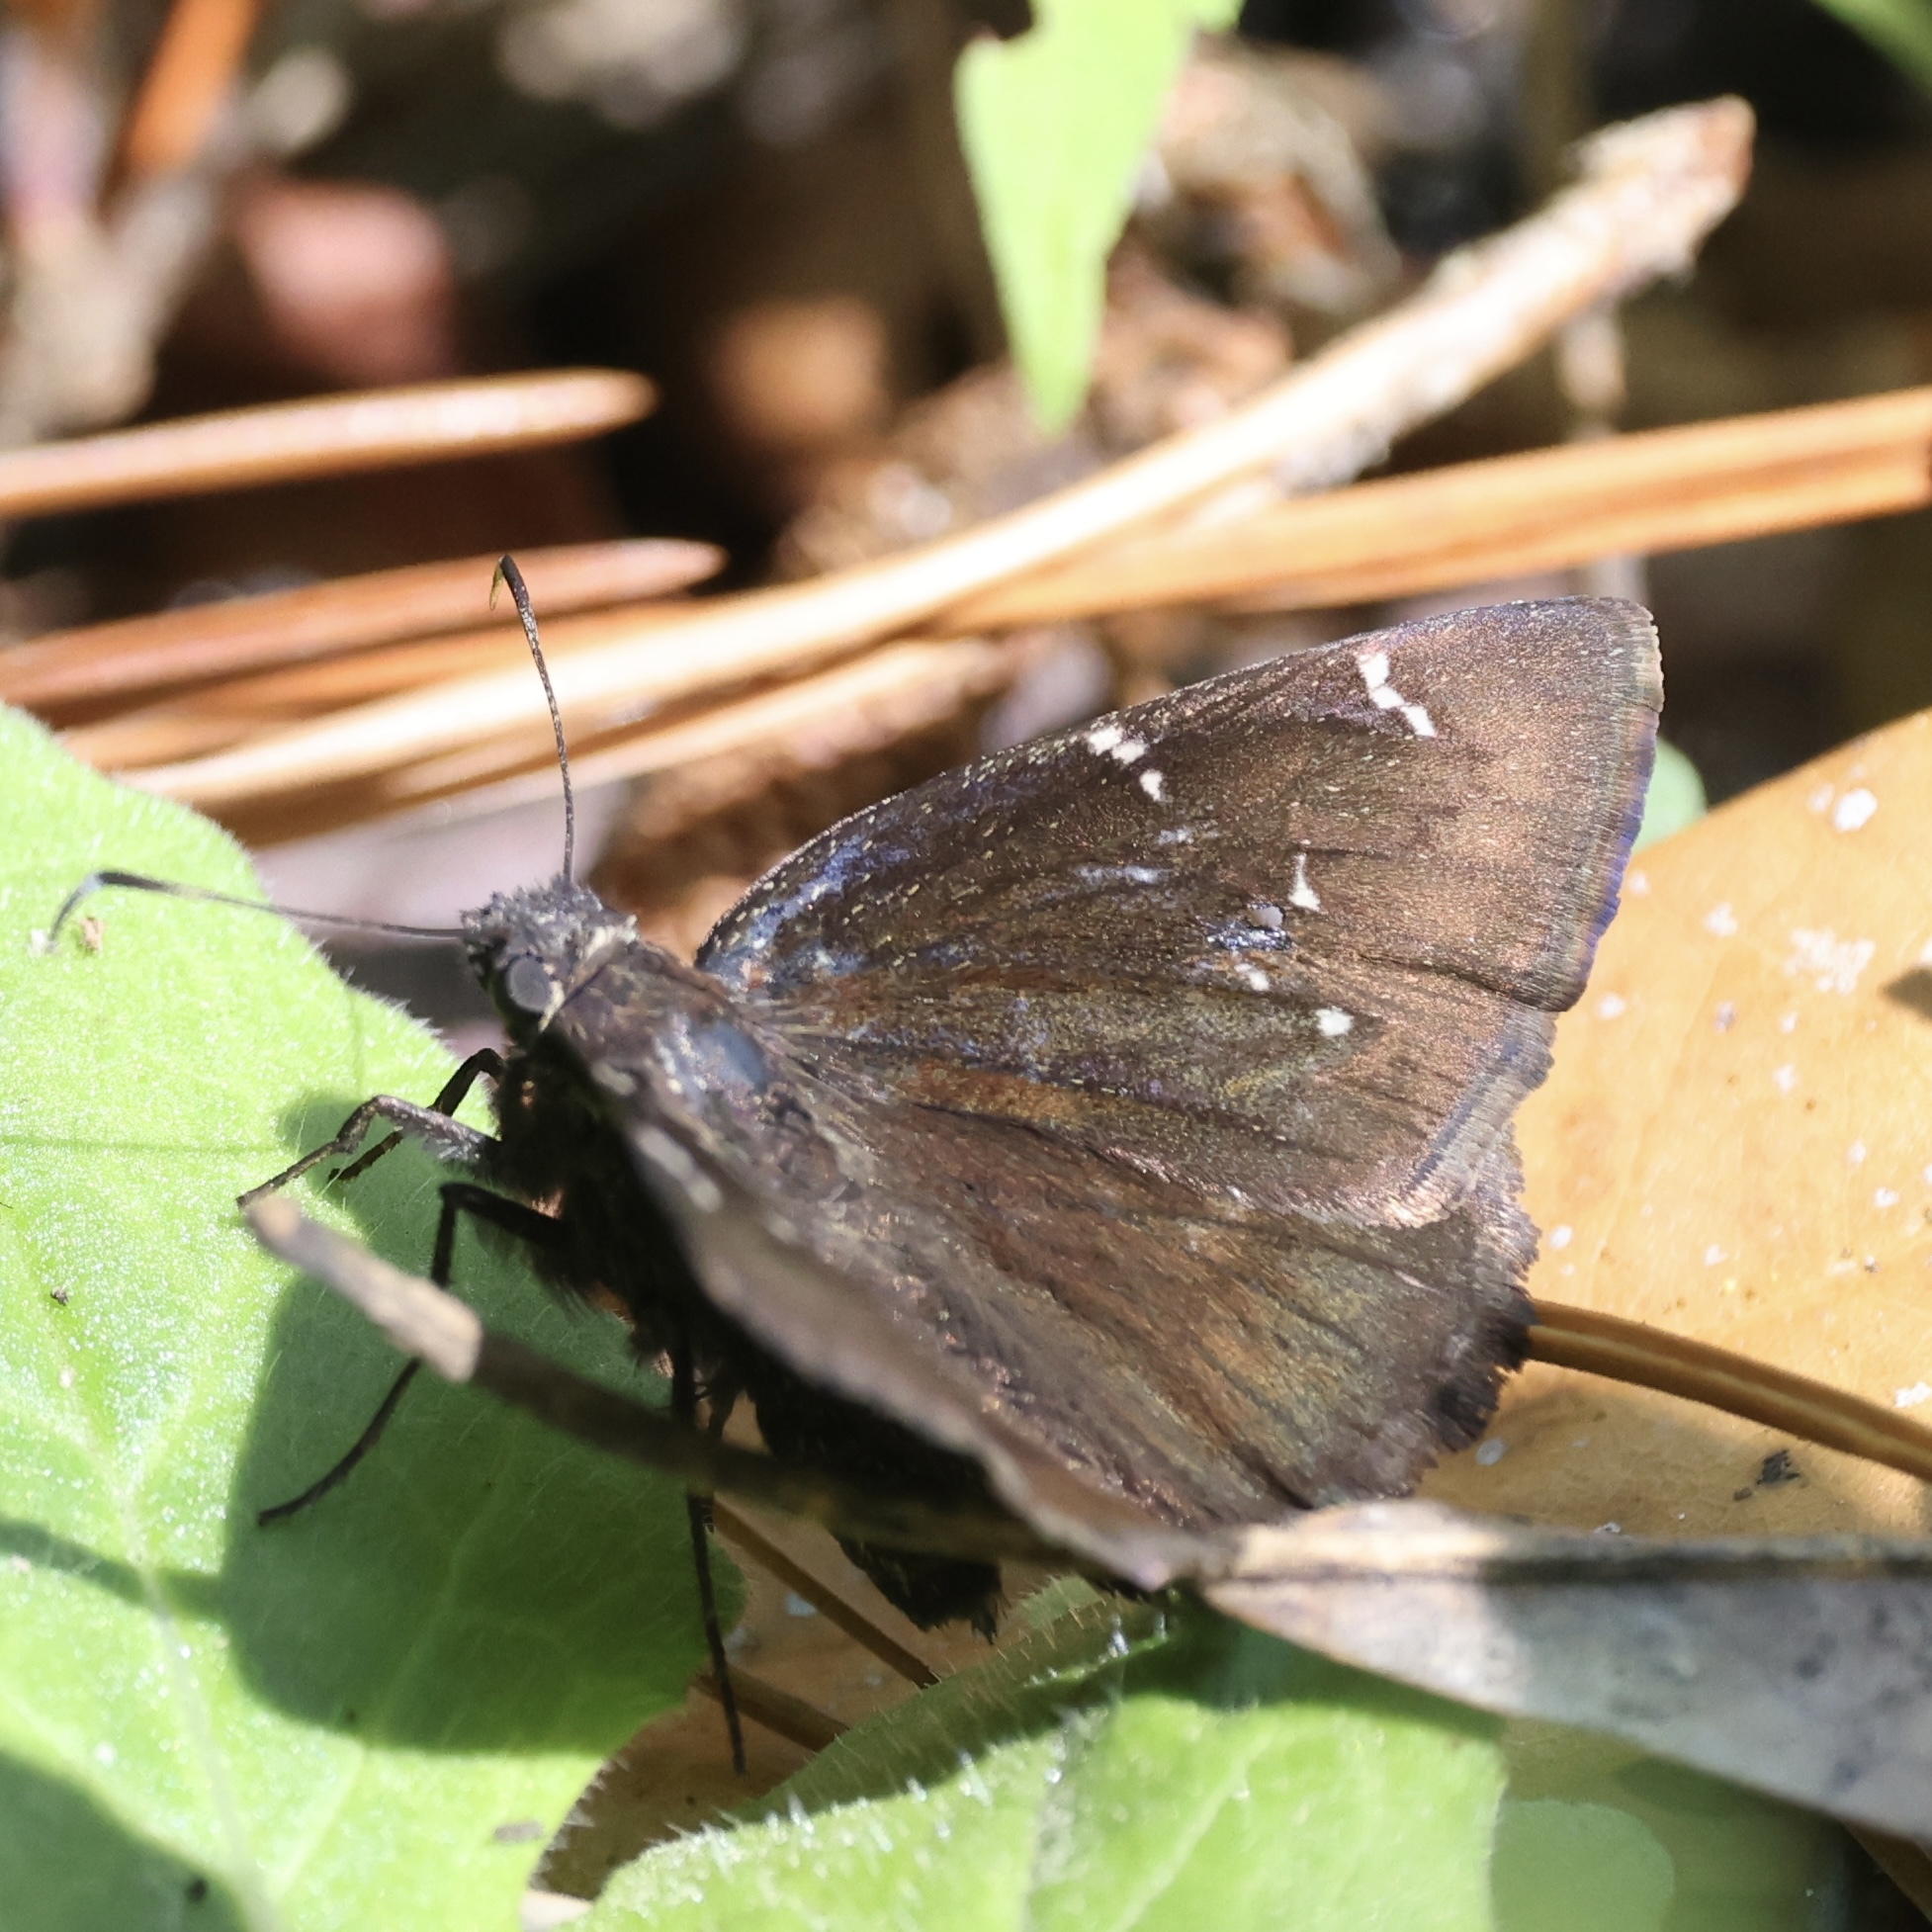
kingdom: Animalia
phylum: Arthropoda
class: Insecta
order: Lepidoptera
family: Hesperiidae
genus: Thorybes
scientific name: Thorybes pylades
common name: Northern cloudywing
